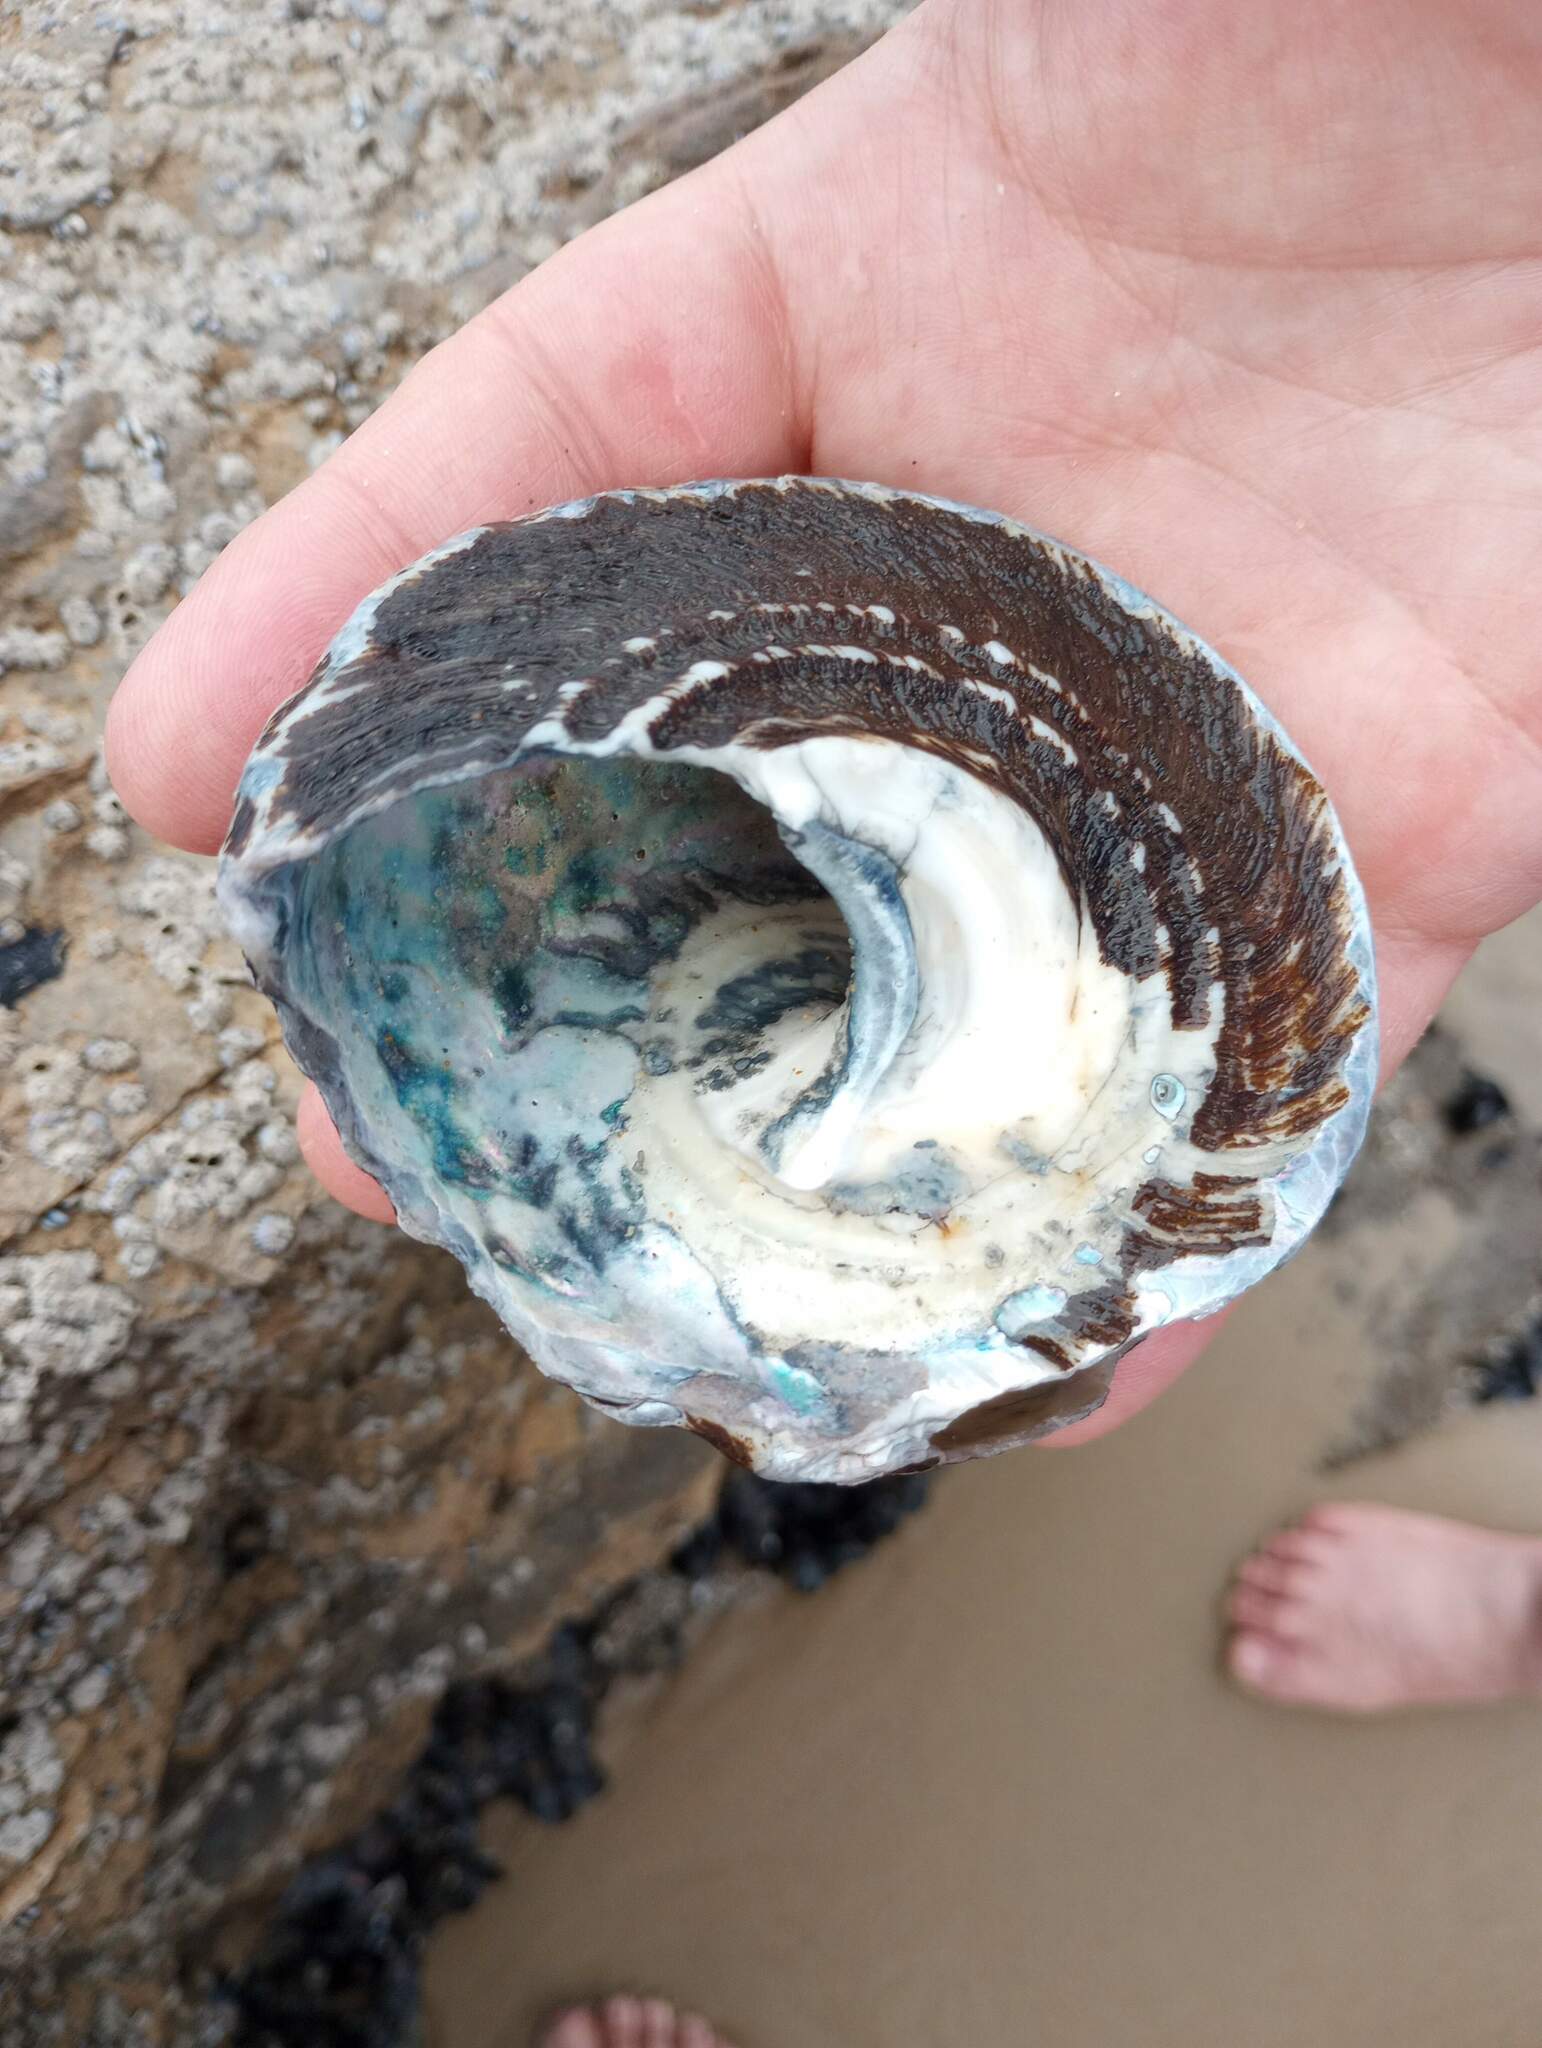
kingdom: Animalia
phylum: Mollusca
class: Gastropoda
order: Trochida
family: Turbinidae
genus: Megastraea
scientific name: Megastraea undosa
